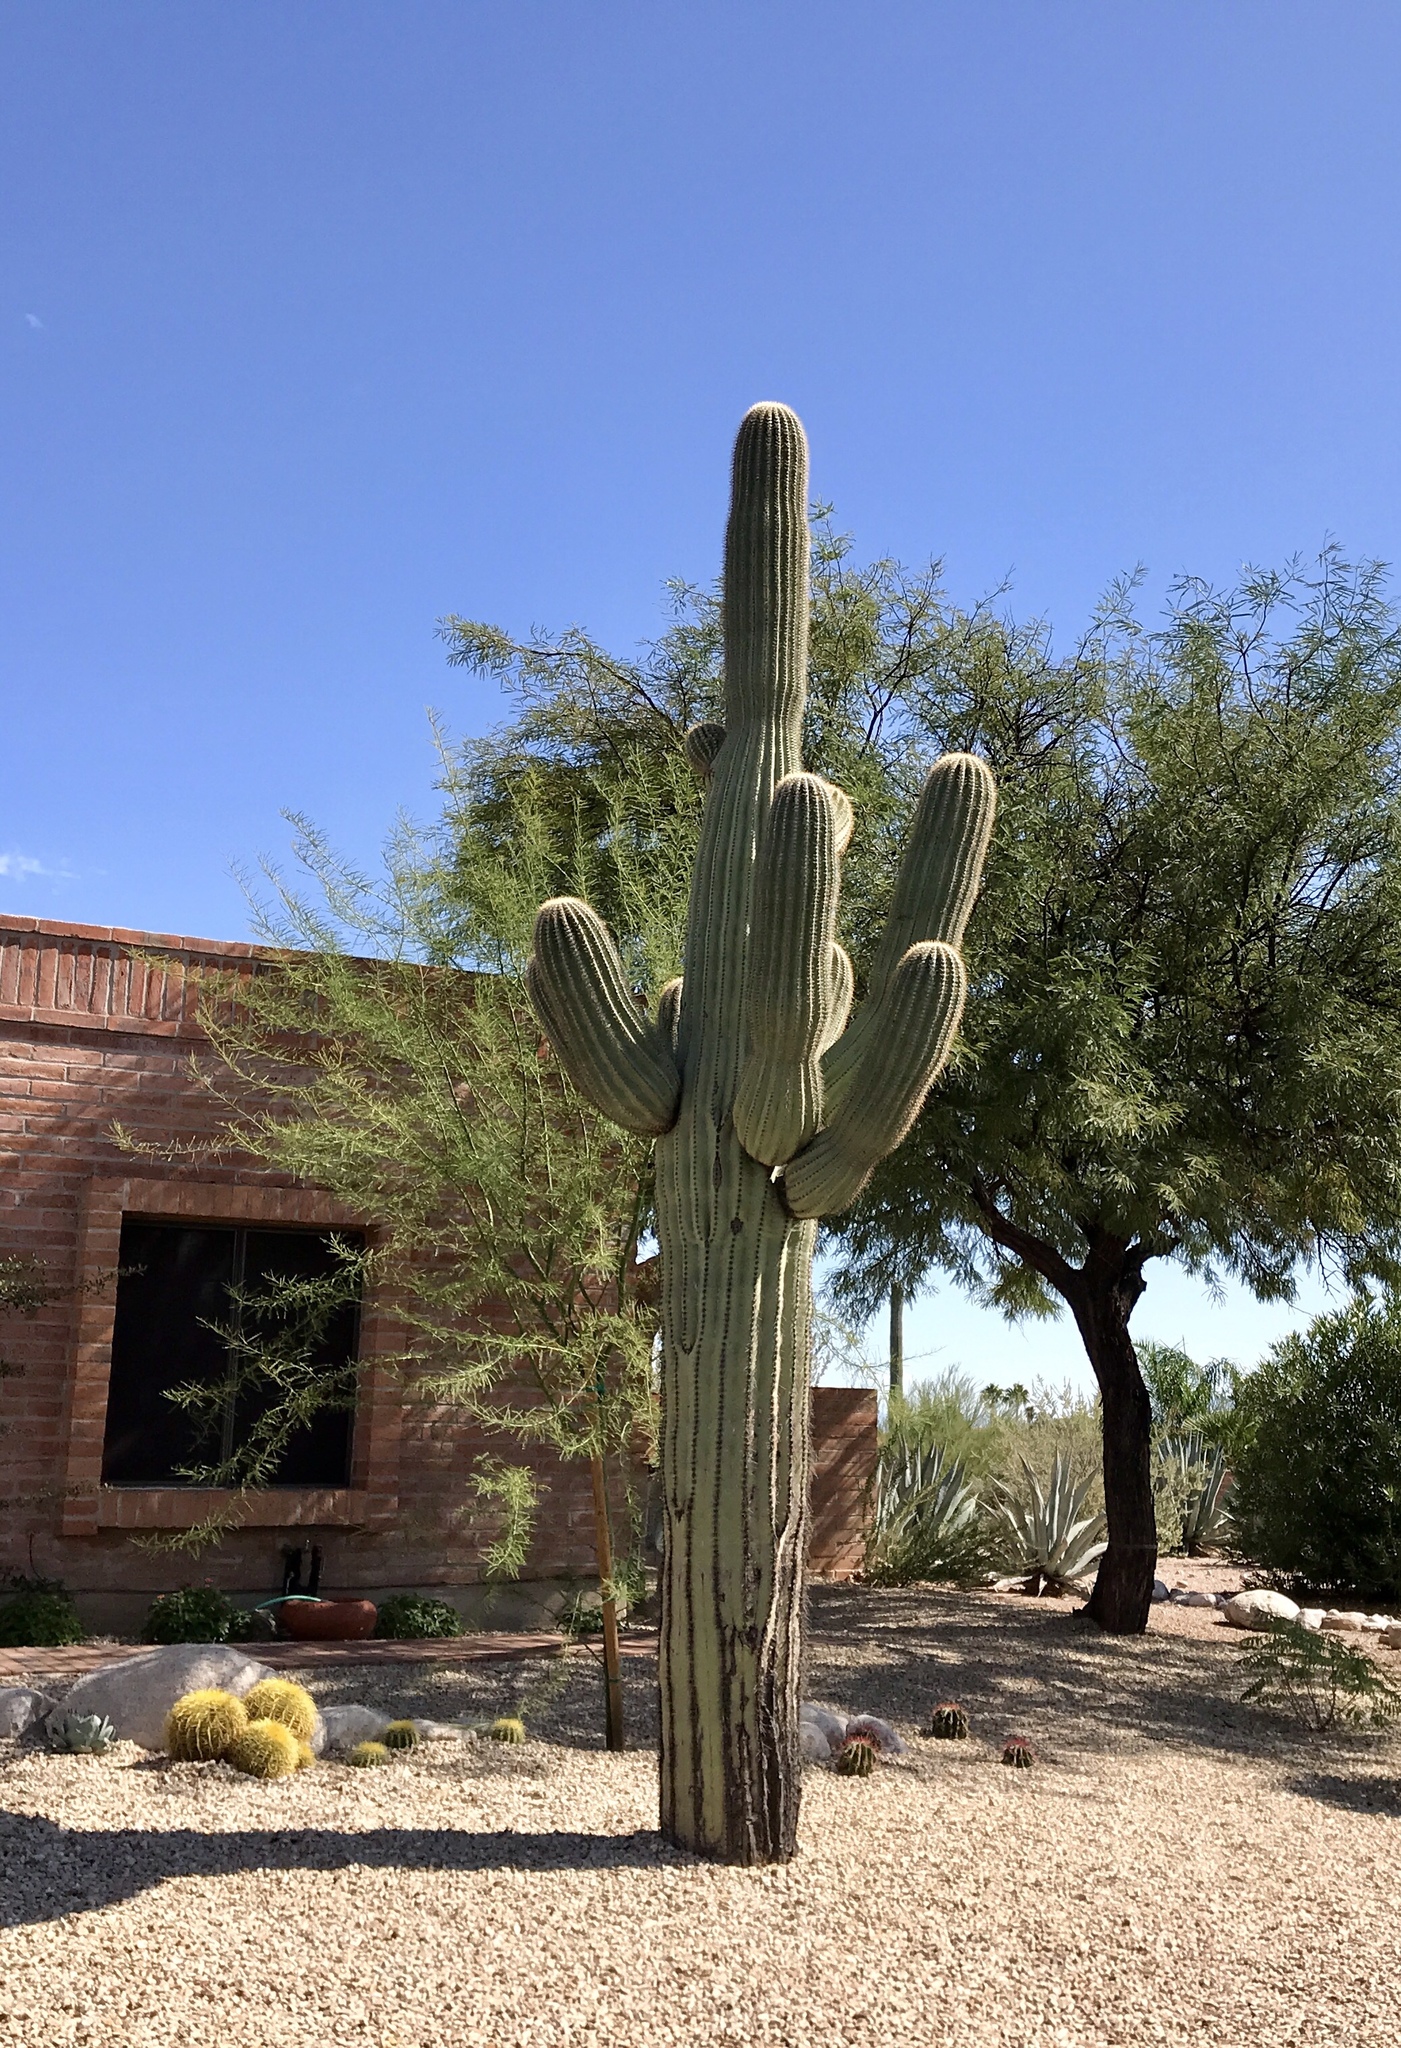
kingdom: Plantae
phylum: Tracheophyta
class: Magnoliopsida
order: Caryophyllales
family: Cactaceae
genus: Carnegiea
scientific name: Carnegiea gigantea
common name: Saguaro
